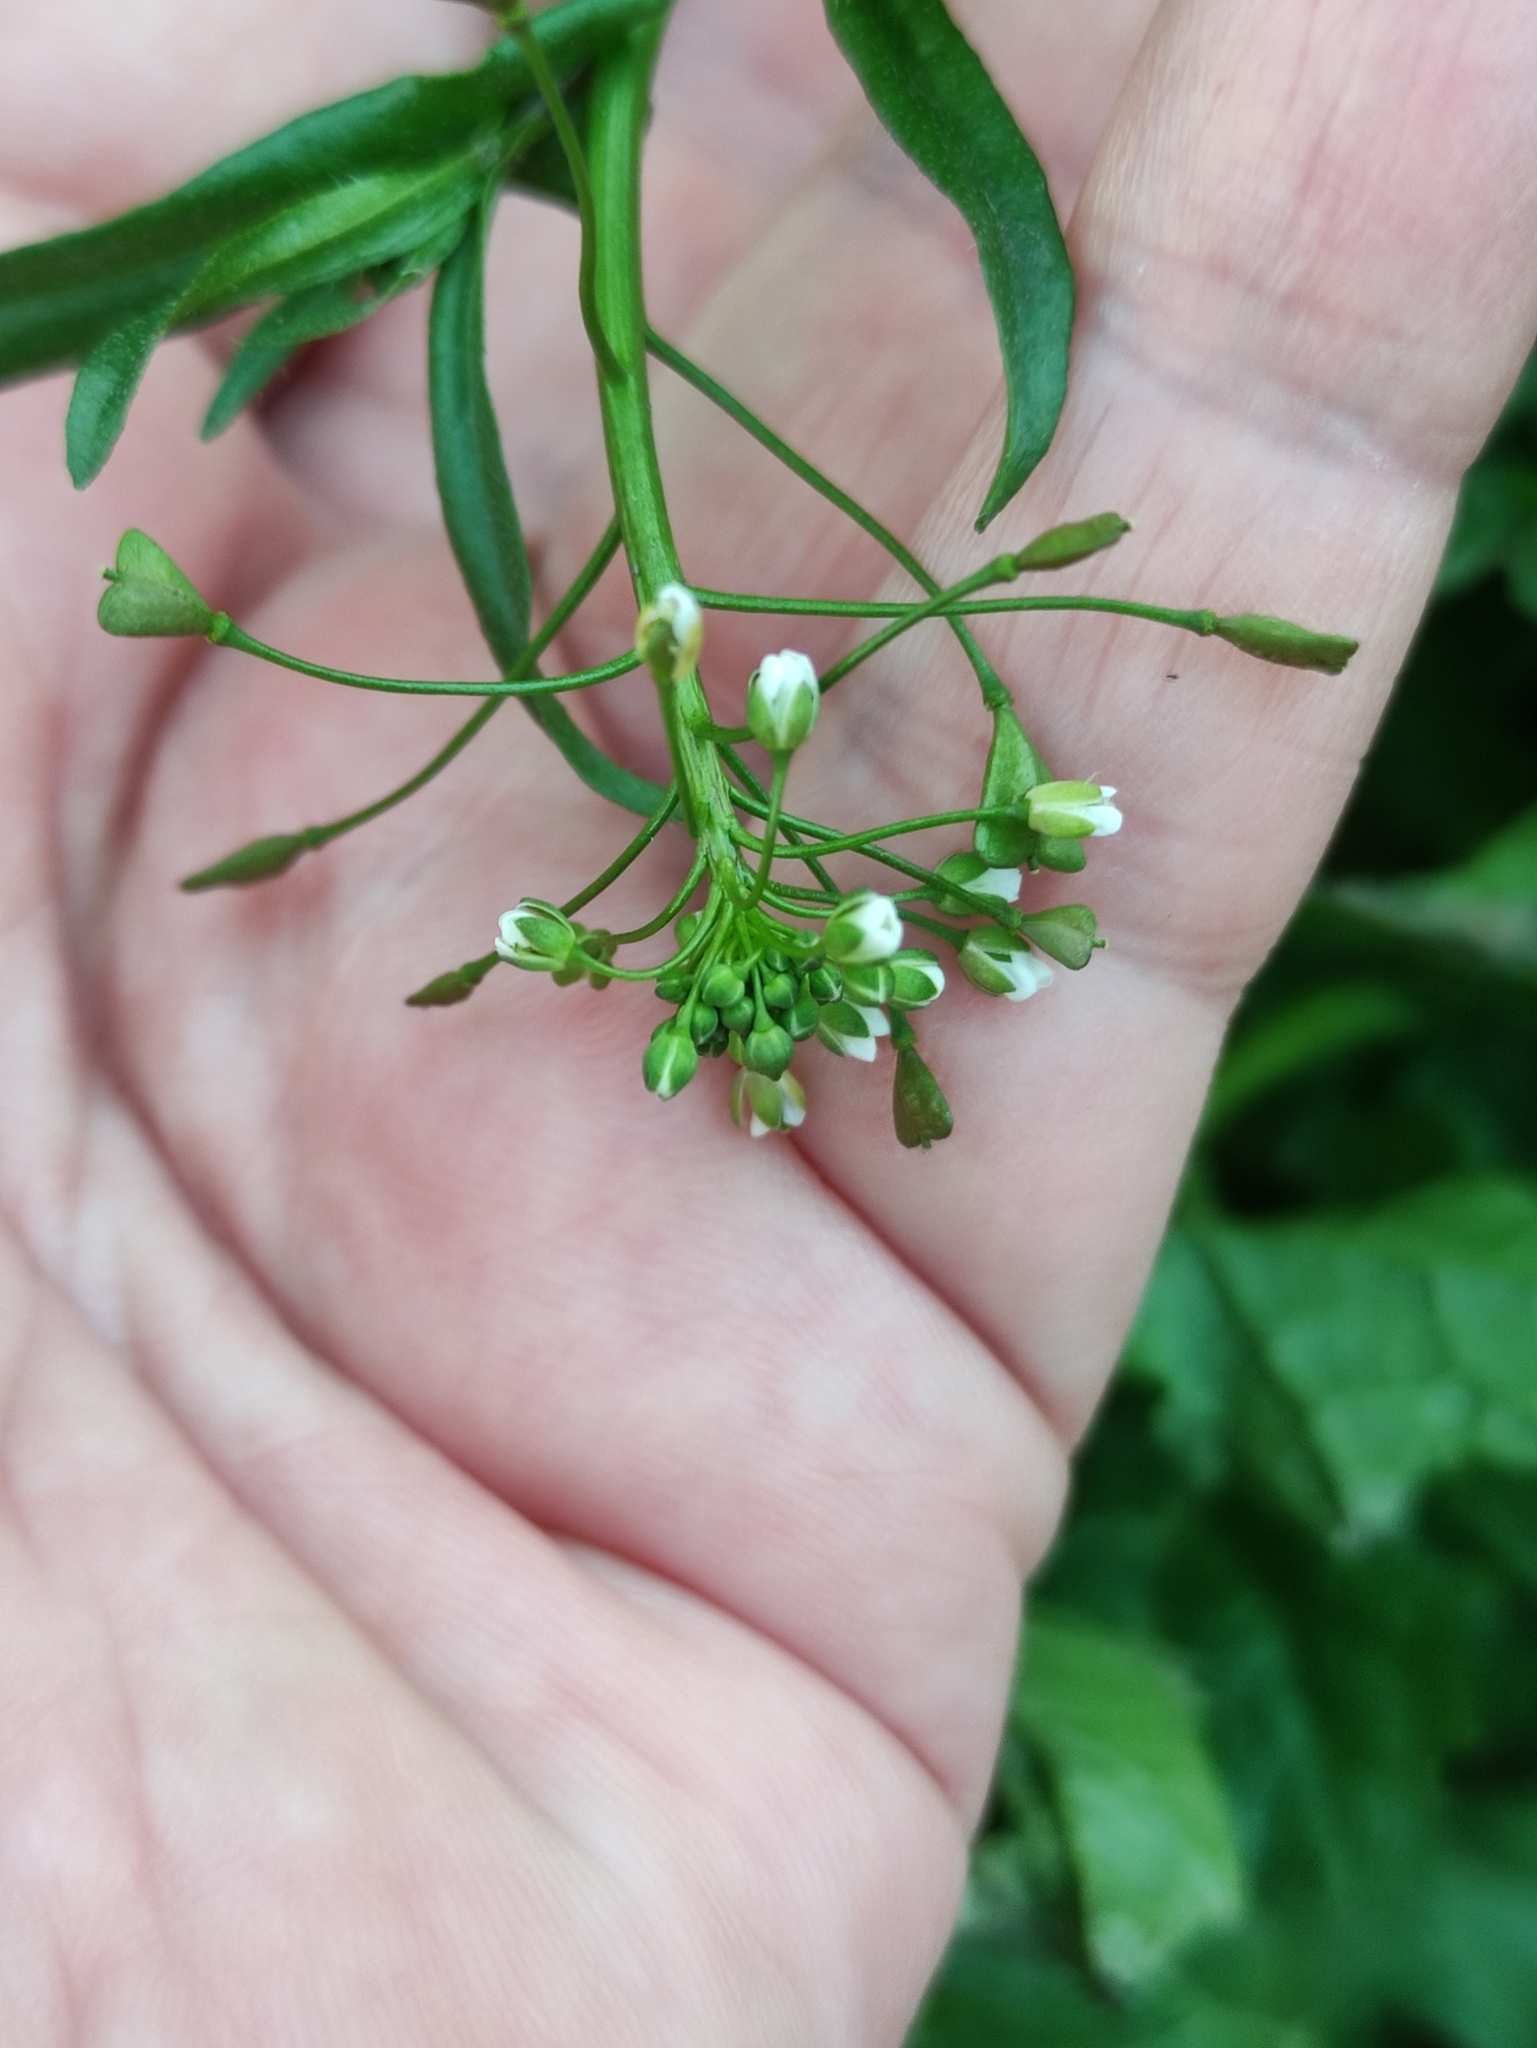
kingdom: Plantae
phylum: Tracheophyta
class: Magnoliopsida
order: Brassicales
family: Brassicaceae
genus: Capsella
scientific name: Capsella bursa-pastoris
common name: Shepherd's purse
